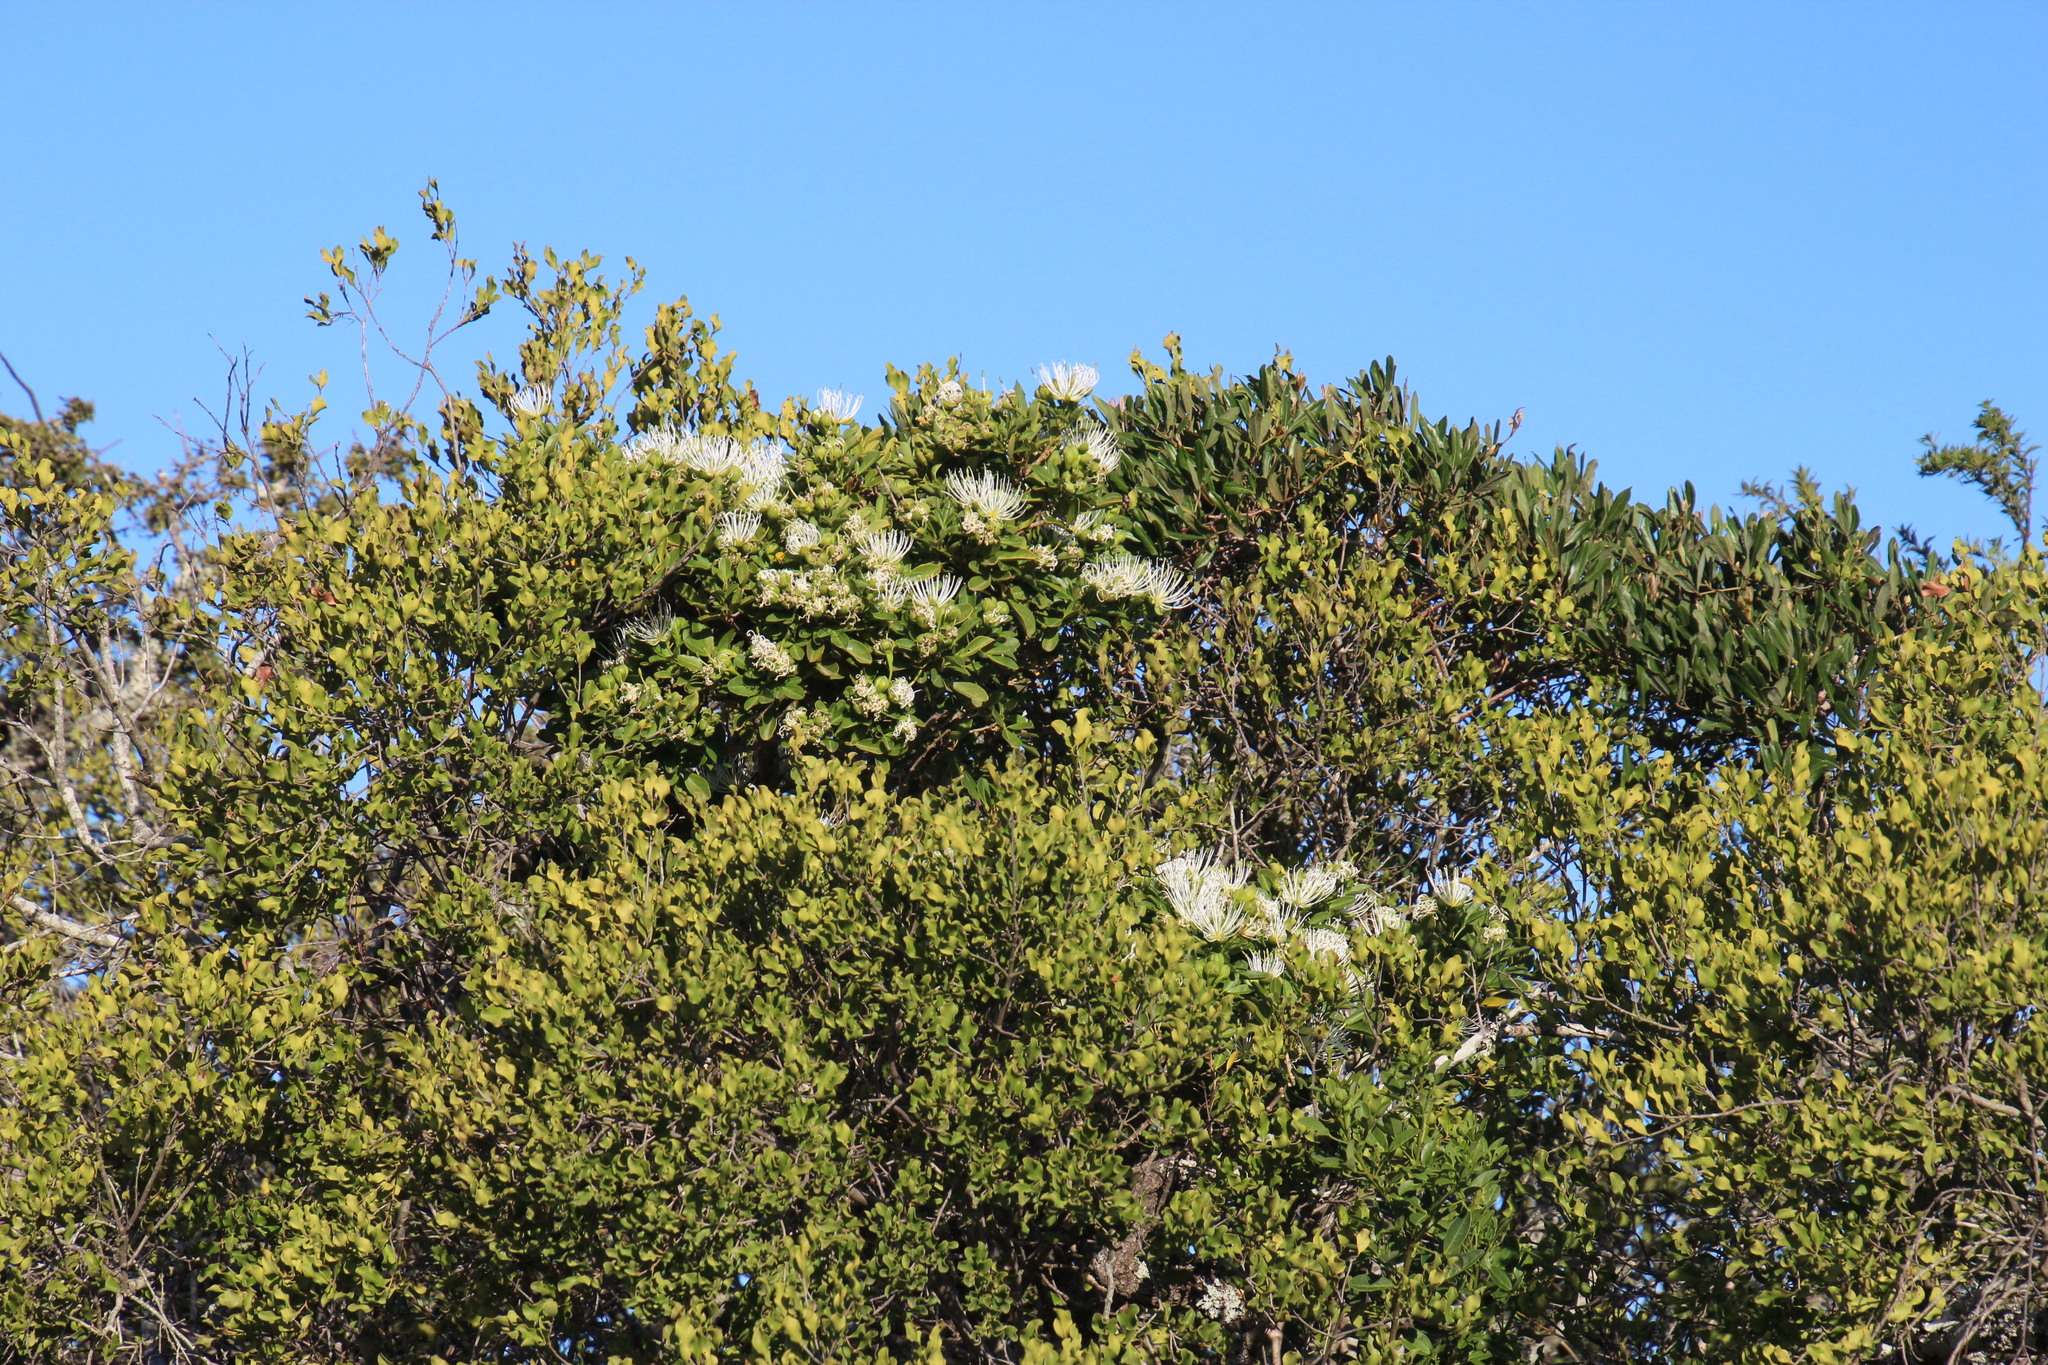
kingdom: Plantae
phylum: Tracheophyta
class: Magnoliopsida
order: Brassicales
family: Capparaceae
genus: Maerua
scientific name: Maerua cafra
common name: Bush maerua
